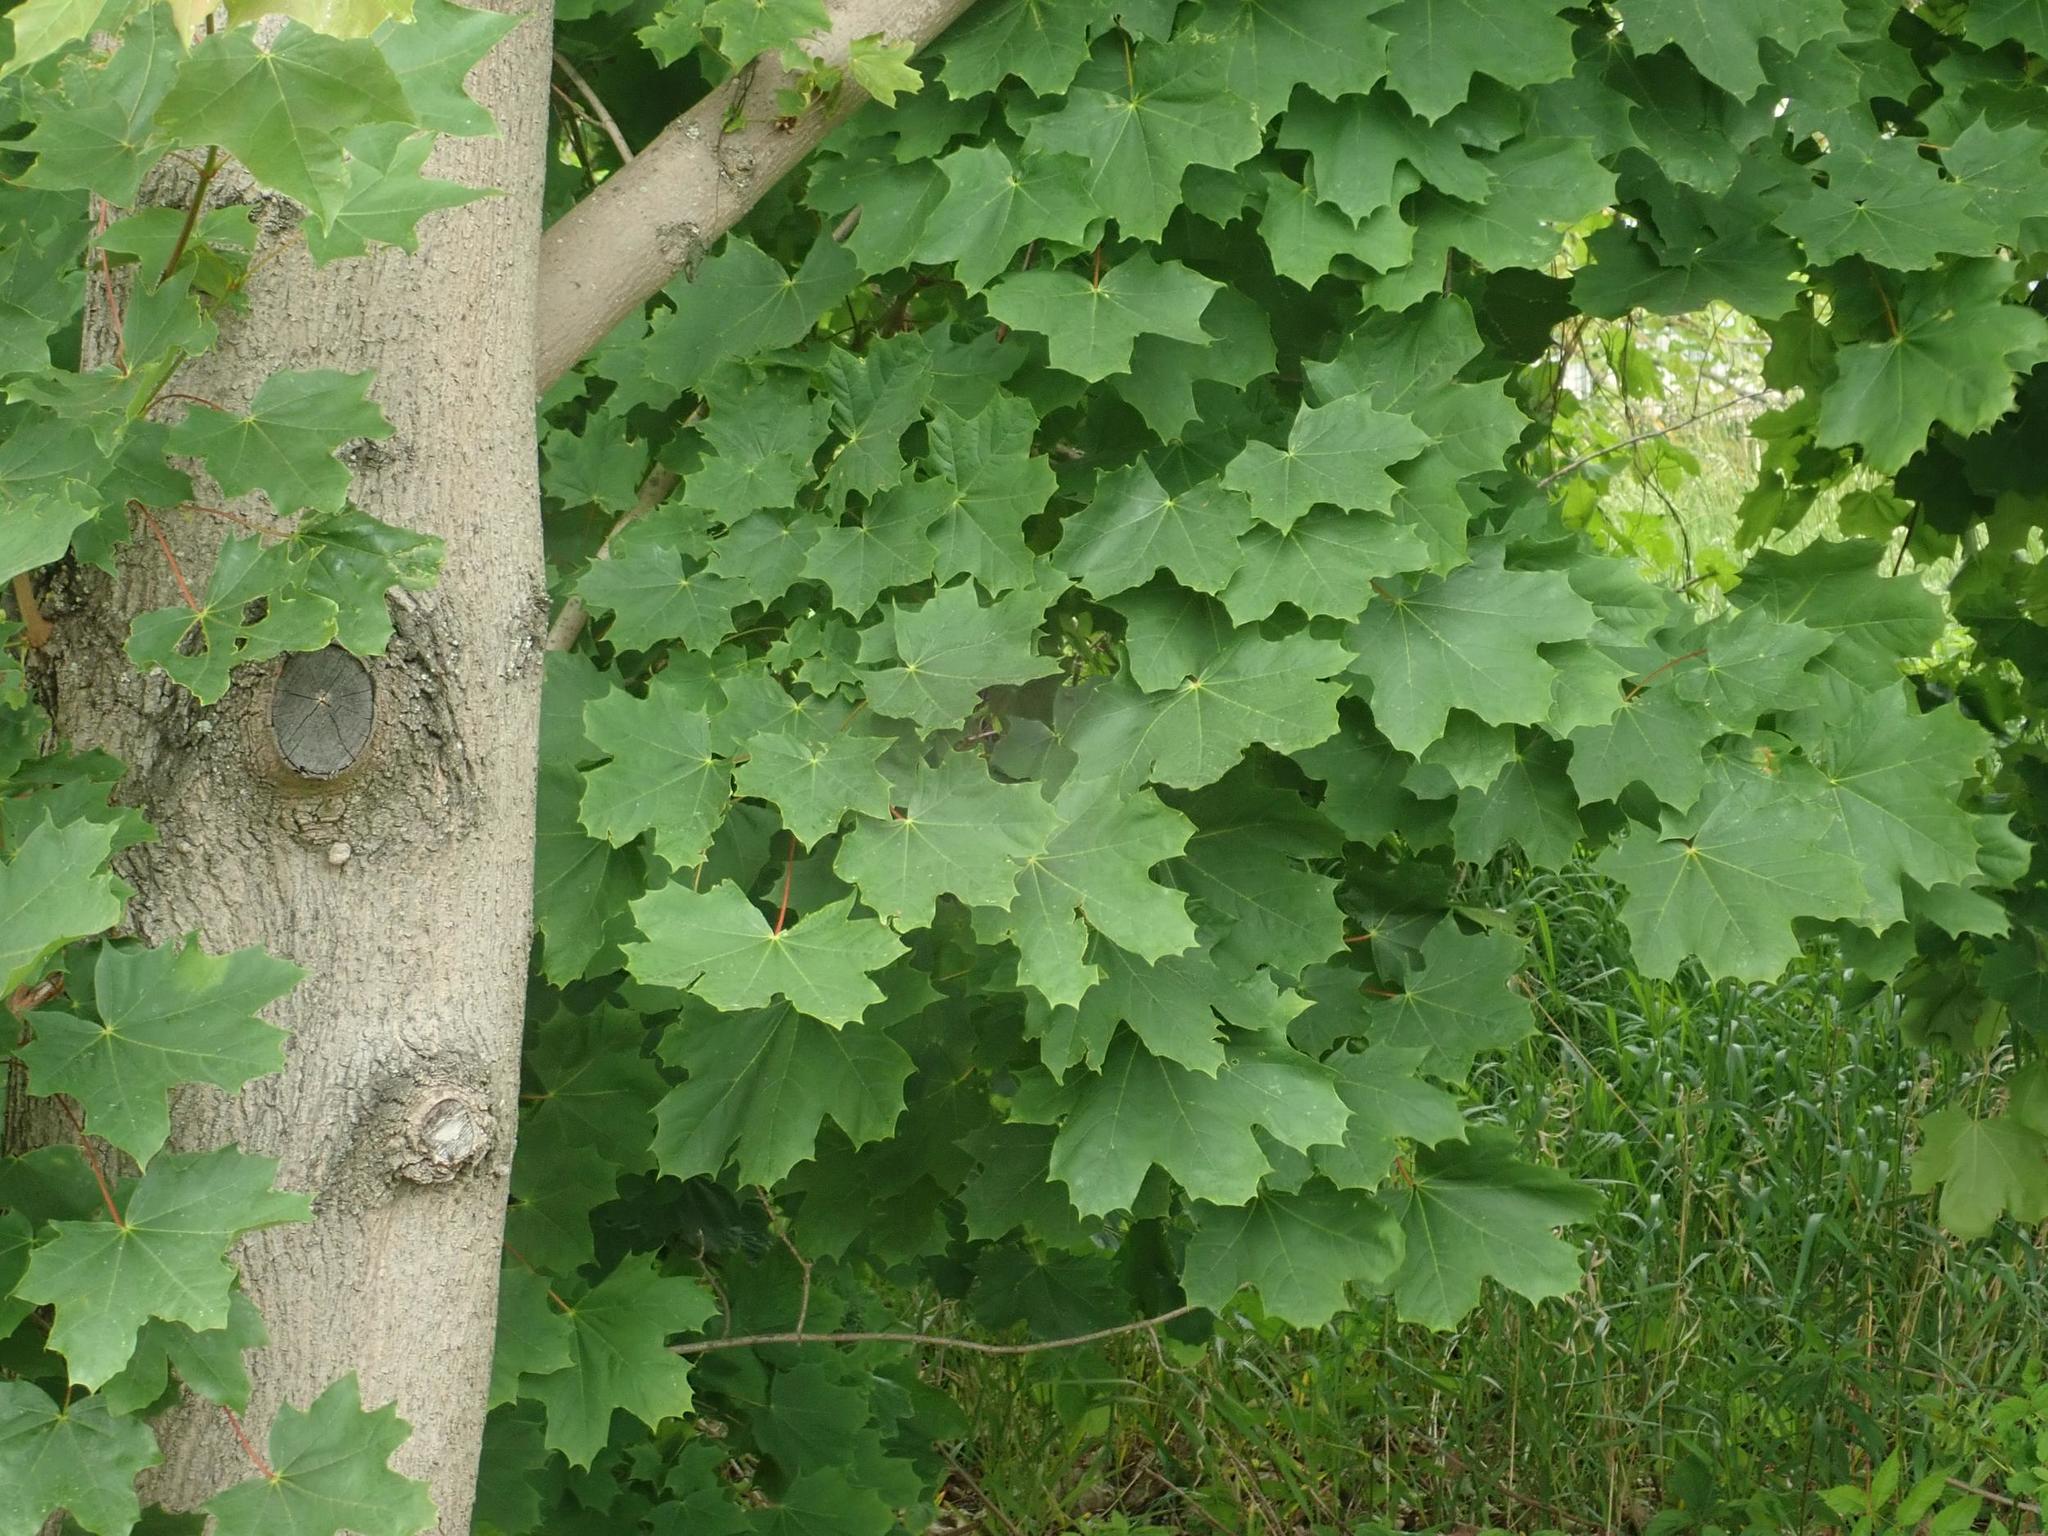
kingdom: Plantae
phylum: Tracheophyta
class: Magnoliopsida
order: Sapindales
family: Sapindaceae
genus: Acer
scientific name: Acer platanoides
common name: Norway maple
